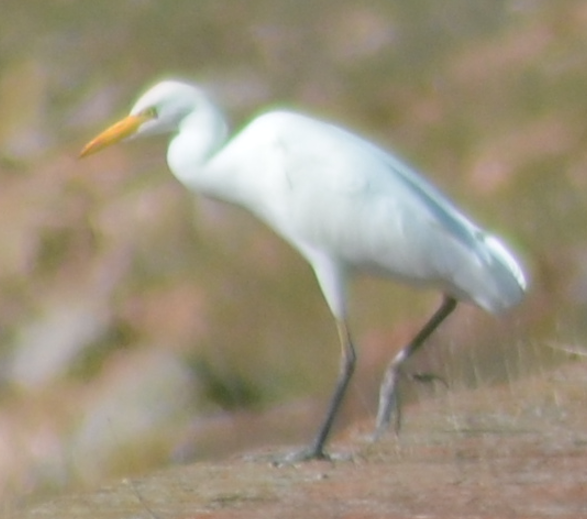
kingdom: Animalia
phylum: Chordata
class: Aves
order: Pelecaniformes
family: Ardeidae
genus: Bubulcus
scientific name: Bubulcus ibis
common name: Cattle egret
